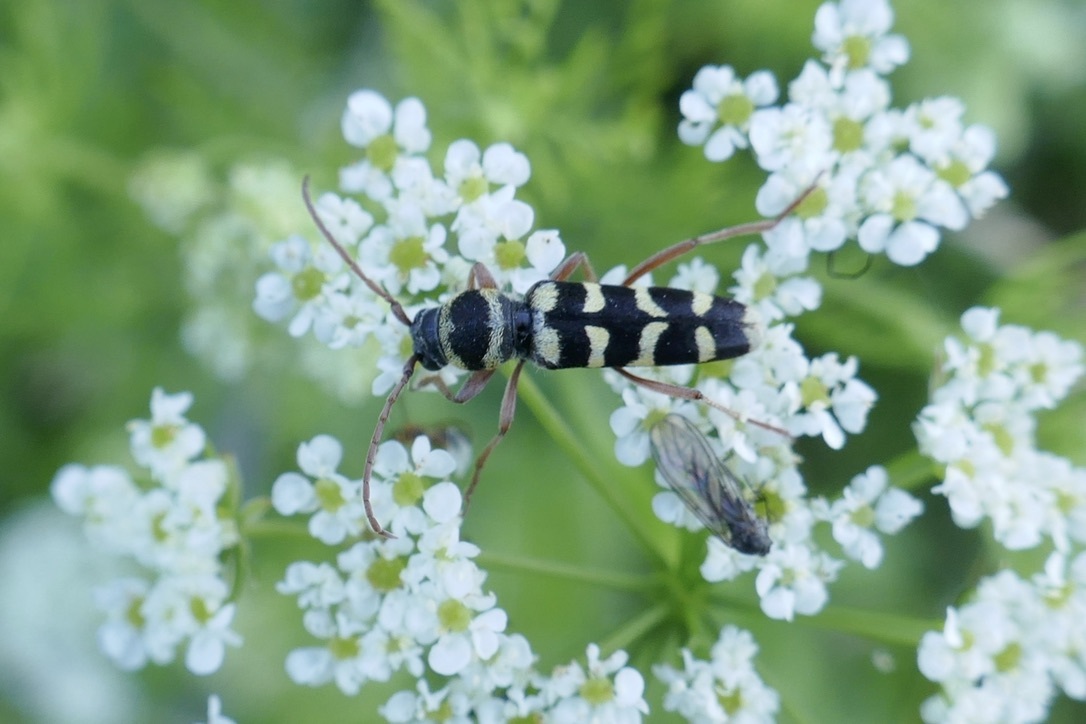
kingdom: Animalia
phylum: Arthropoda
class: Insecta
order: Coleoptera
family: Cerambycidae
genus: Plagionotus
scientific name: Plagionotus floralis
